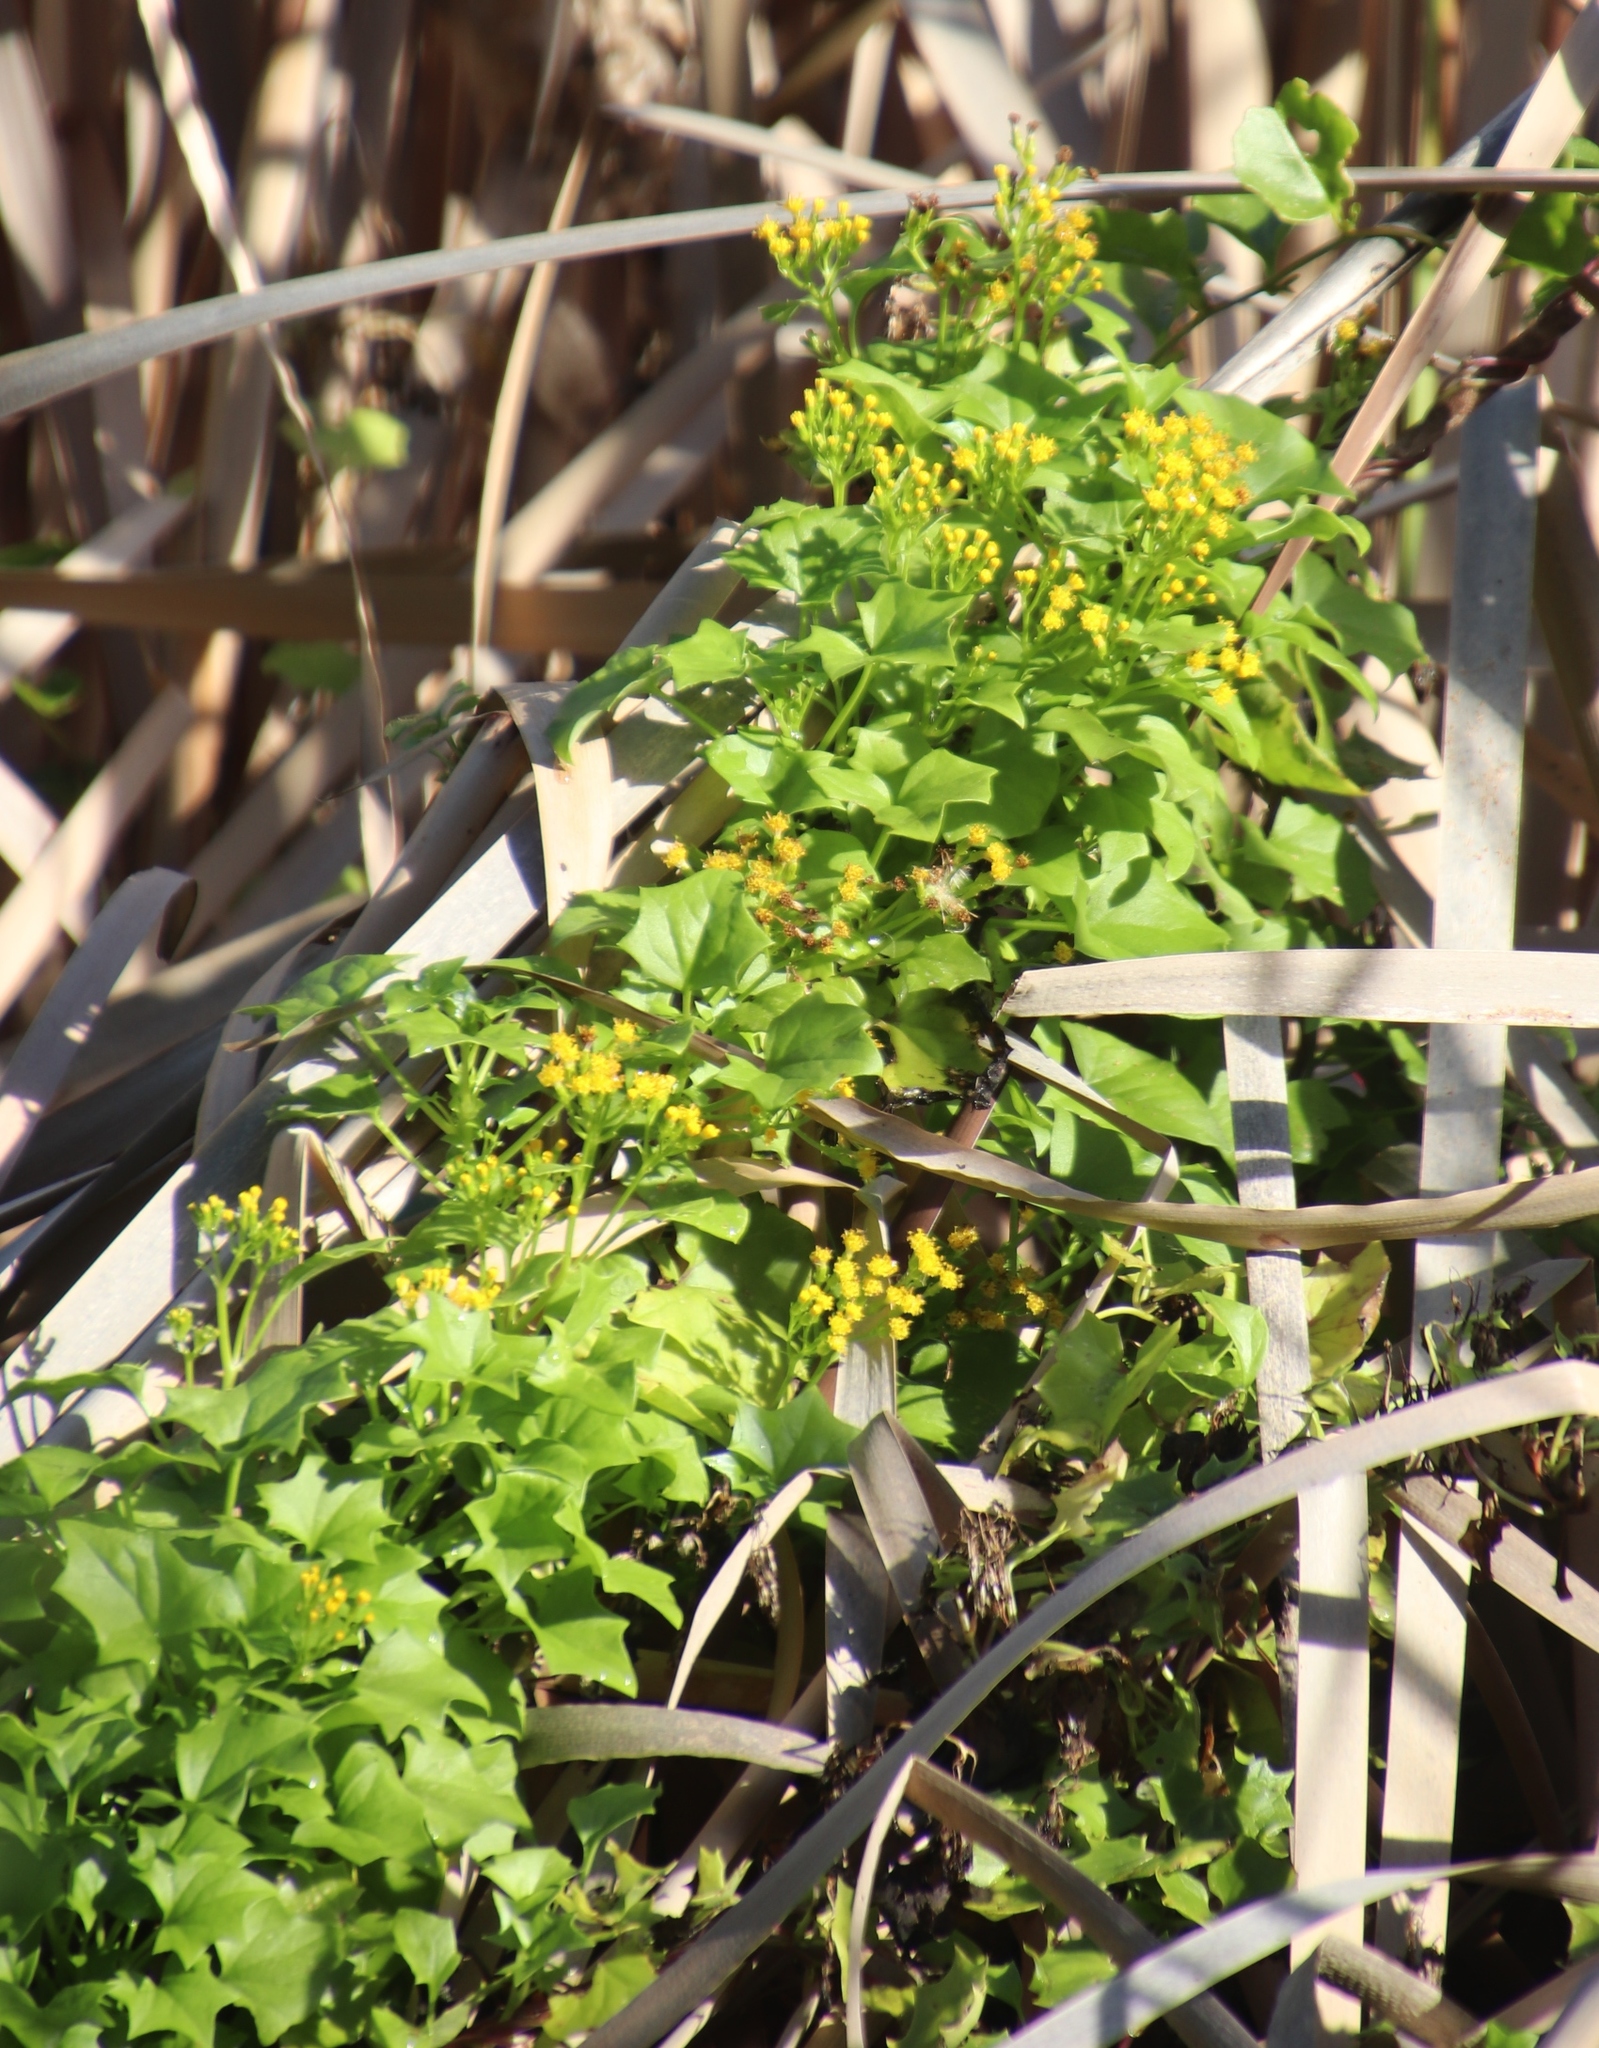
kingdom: Plantae
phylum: Tracheophyta
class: Magnoliopsida
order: Asterales
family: Asteraceae
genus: Delairea
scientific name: Delairea odorata
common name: Cape-ivy
